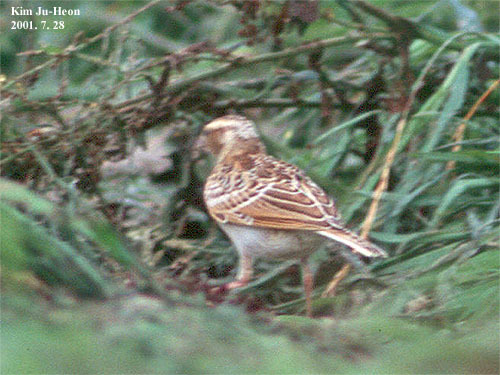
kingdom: Animalia
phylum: Chordata
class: Aves
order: Passeriformes
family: Alaudidae
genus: Alauda
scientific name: Alauda arvensis
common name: Eurasian skylark
